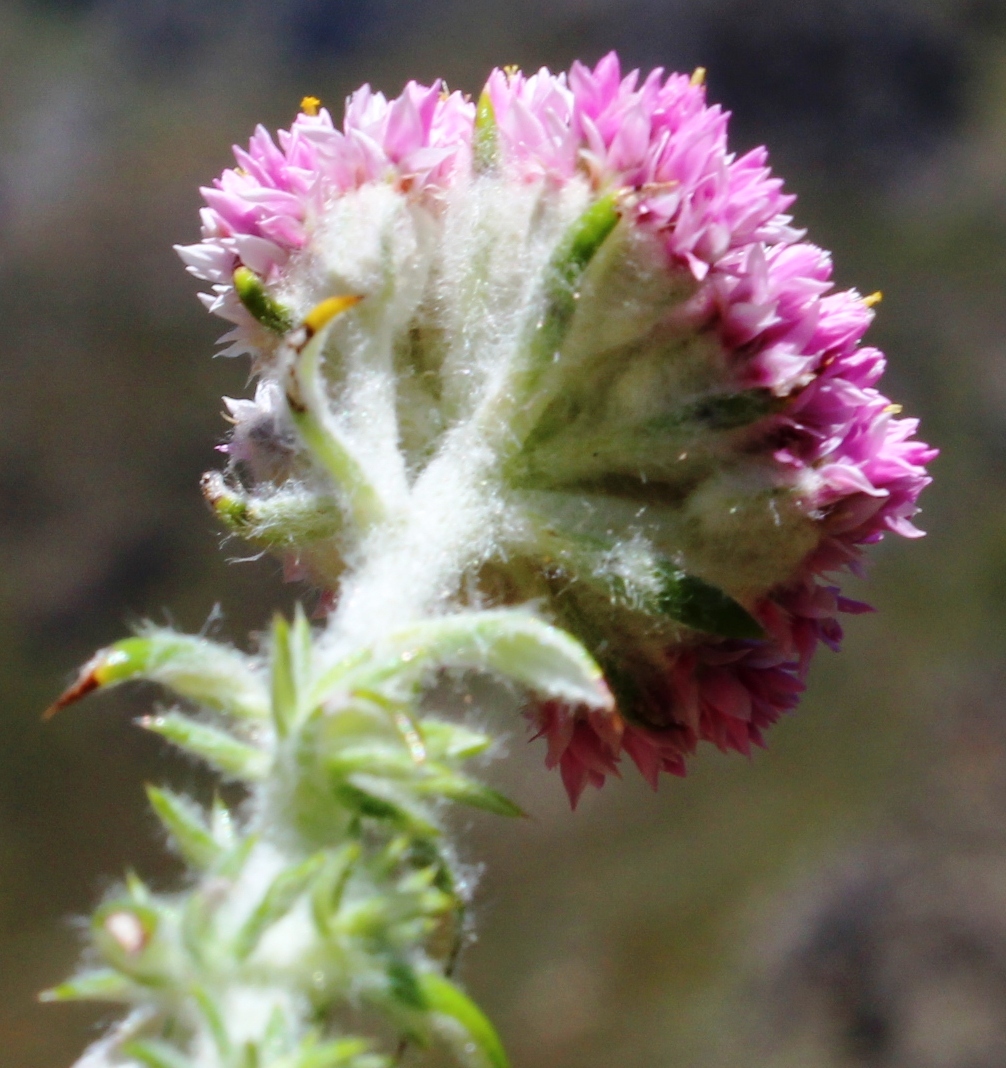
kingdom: Plantae
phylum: Tracheophyta
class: Magnoliopsida
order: Asterales
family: Asteraceae
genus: Metalasia
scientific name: Metalasia cephalotes
